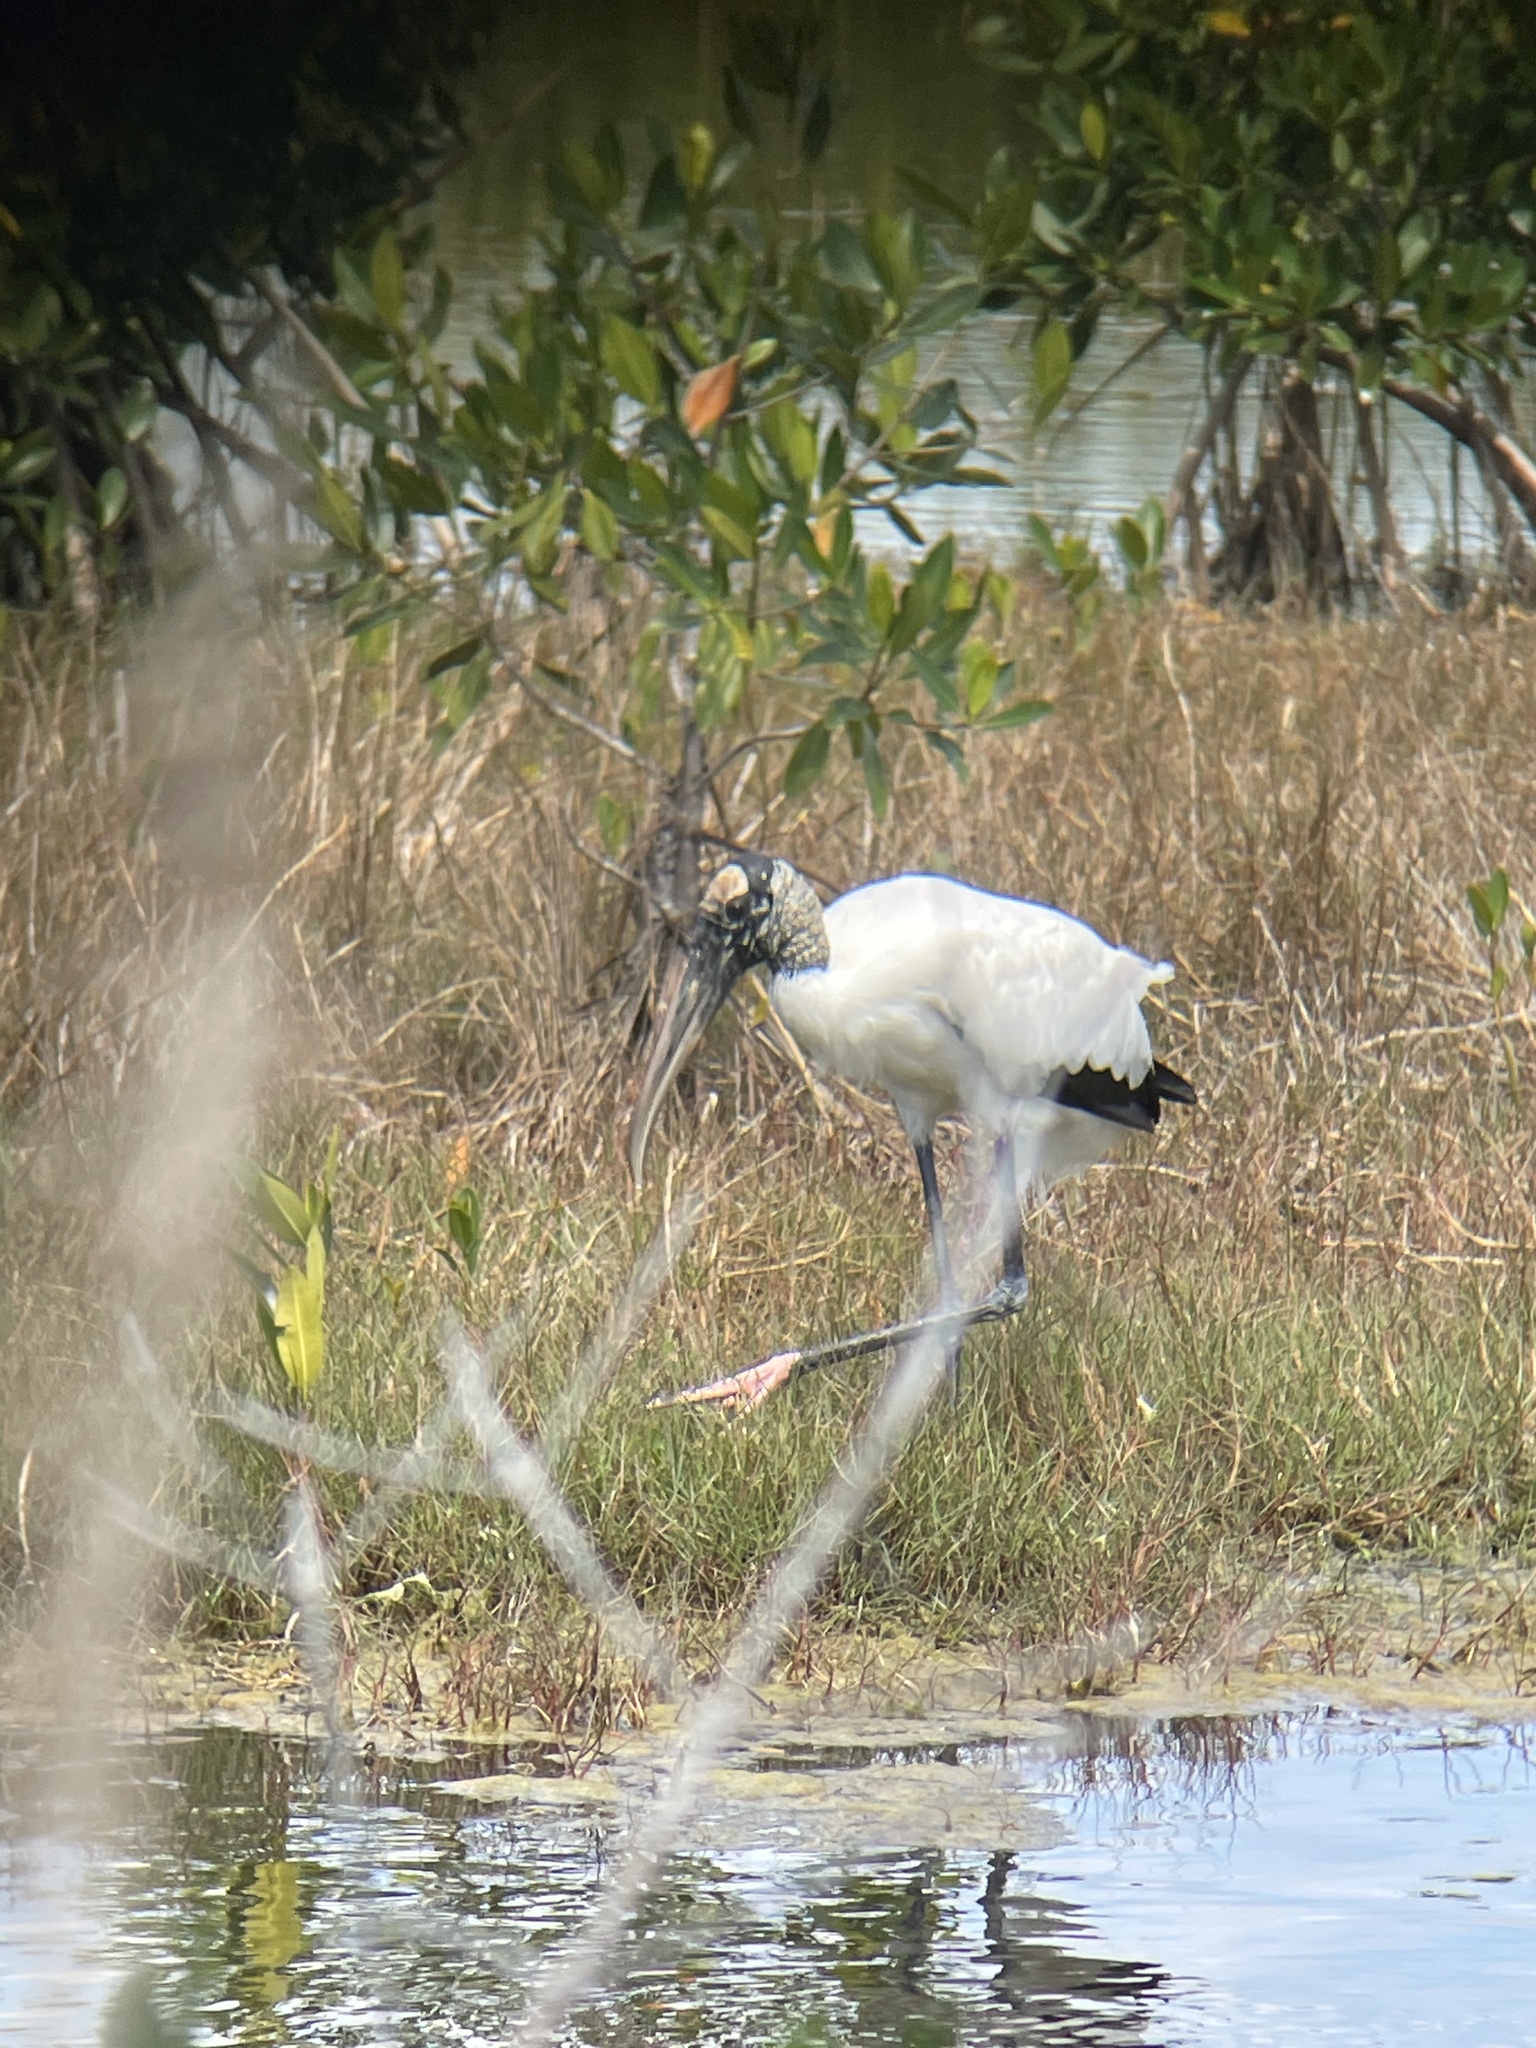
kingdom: Animalia
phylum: Chordata
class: Aves
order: Ciconiiformes
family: Ciconiidae
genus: Mycteria
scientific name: Mycteria americana
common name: Wood stork
